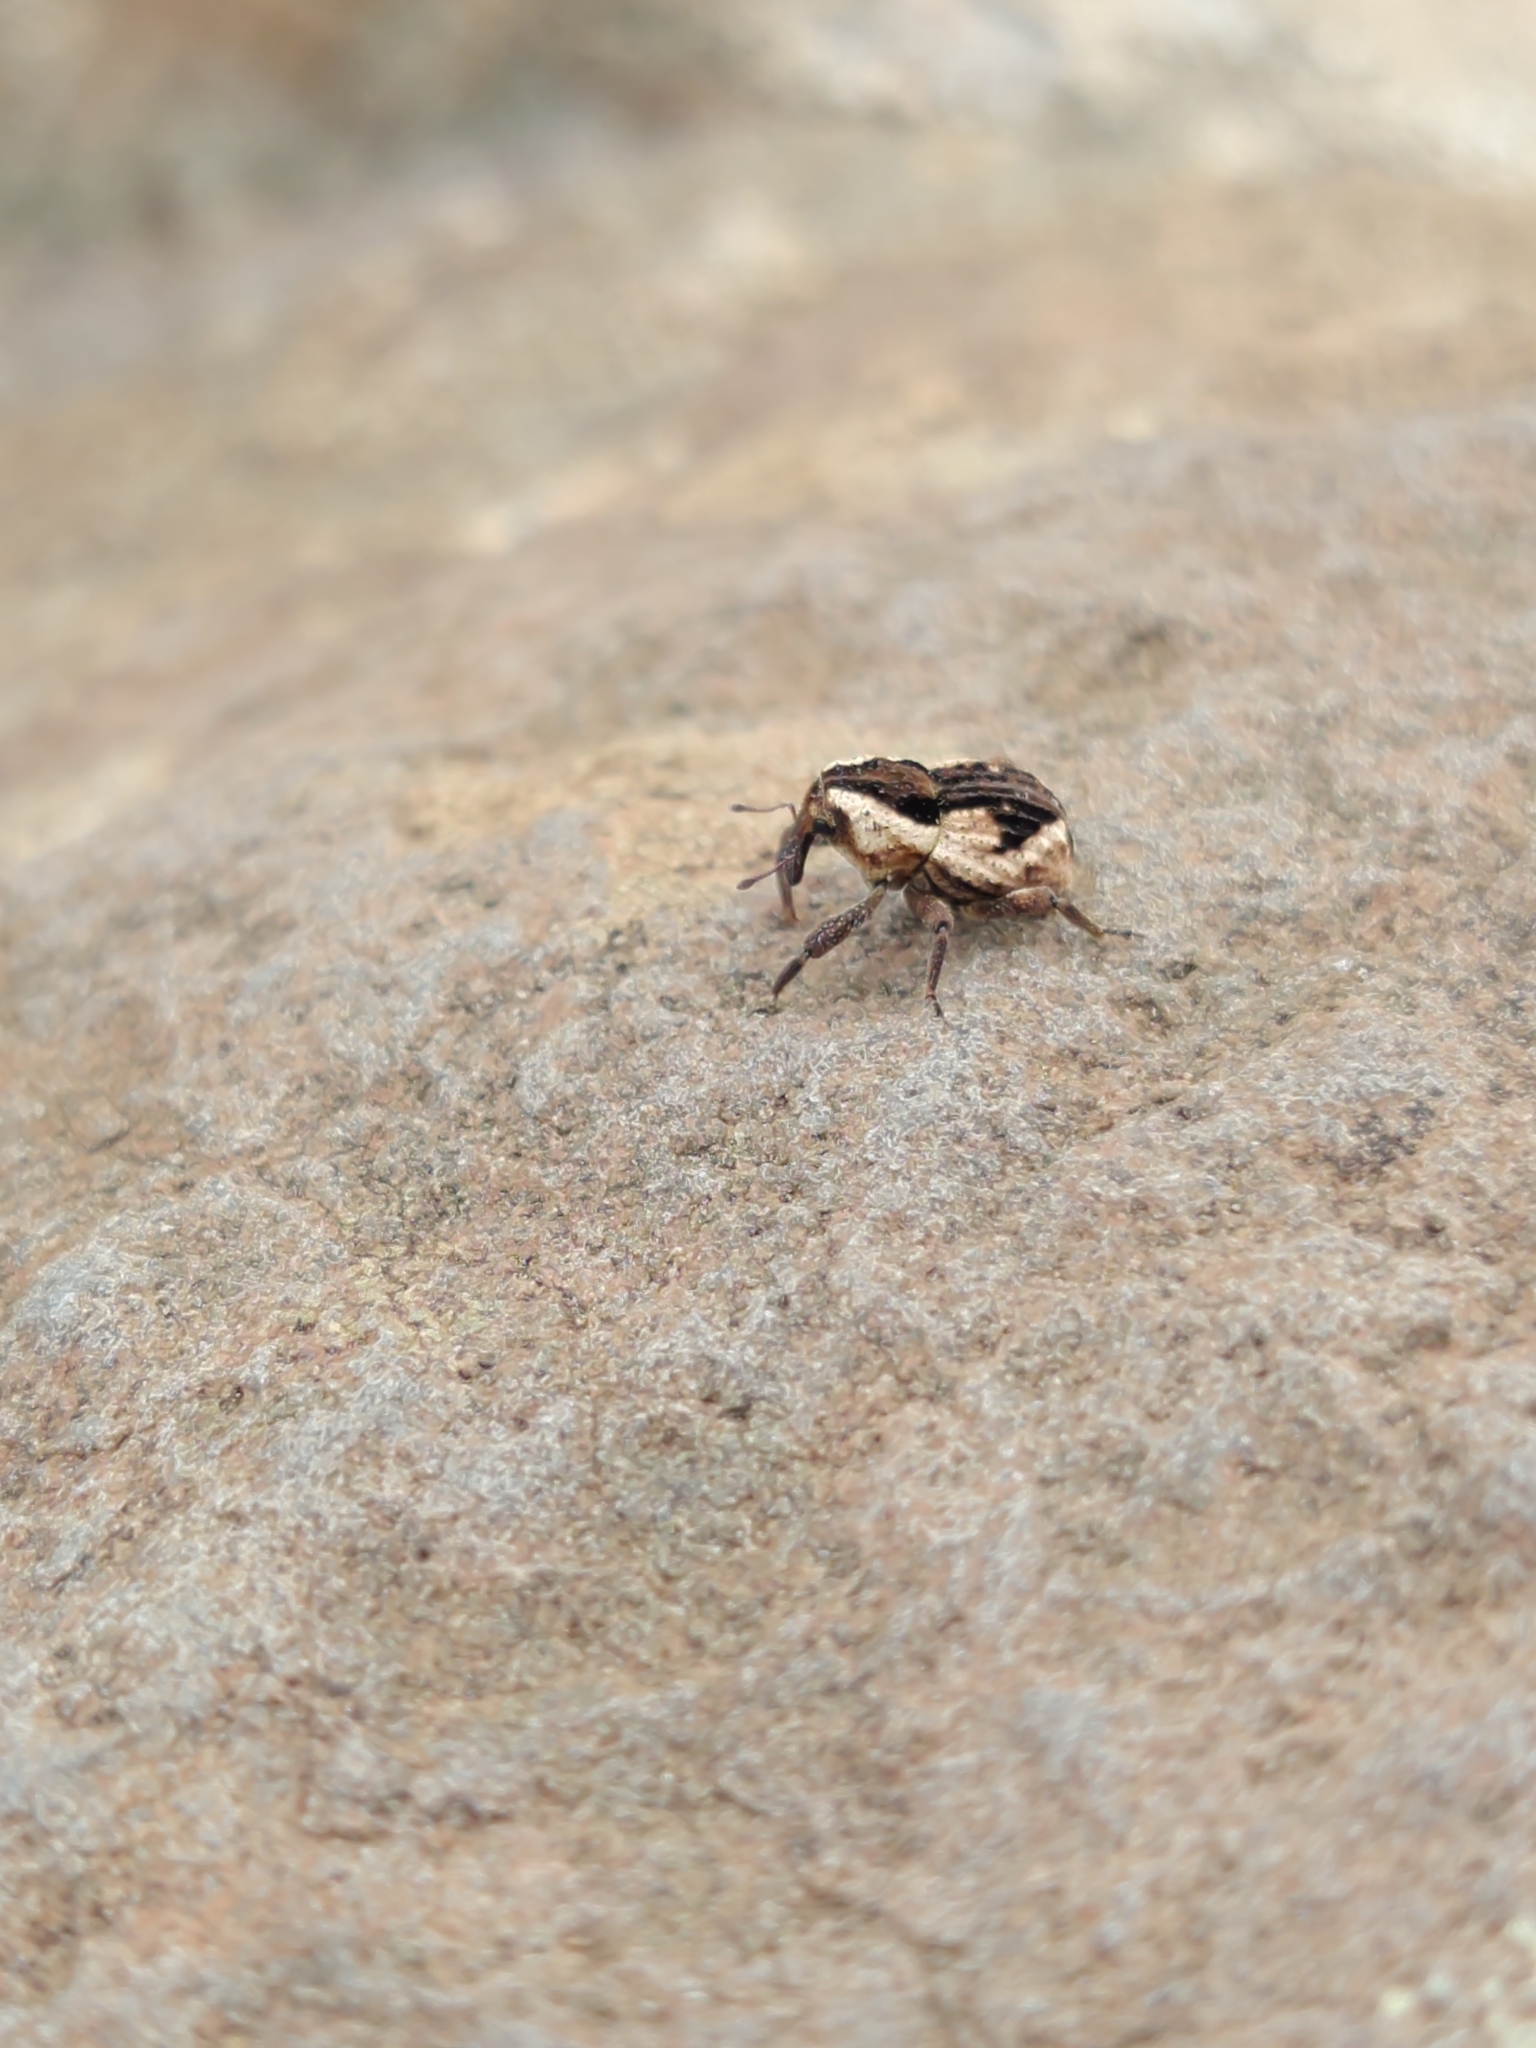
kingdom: Animalia
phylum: Arthropoda
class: Insecta
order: Coleoptera
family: Curculionidae
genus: Nothoperissops
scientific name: Nothoperissops frenatus
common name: Beetle
